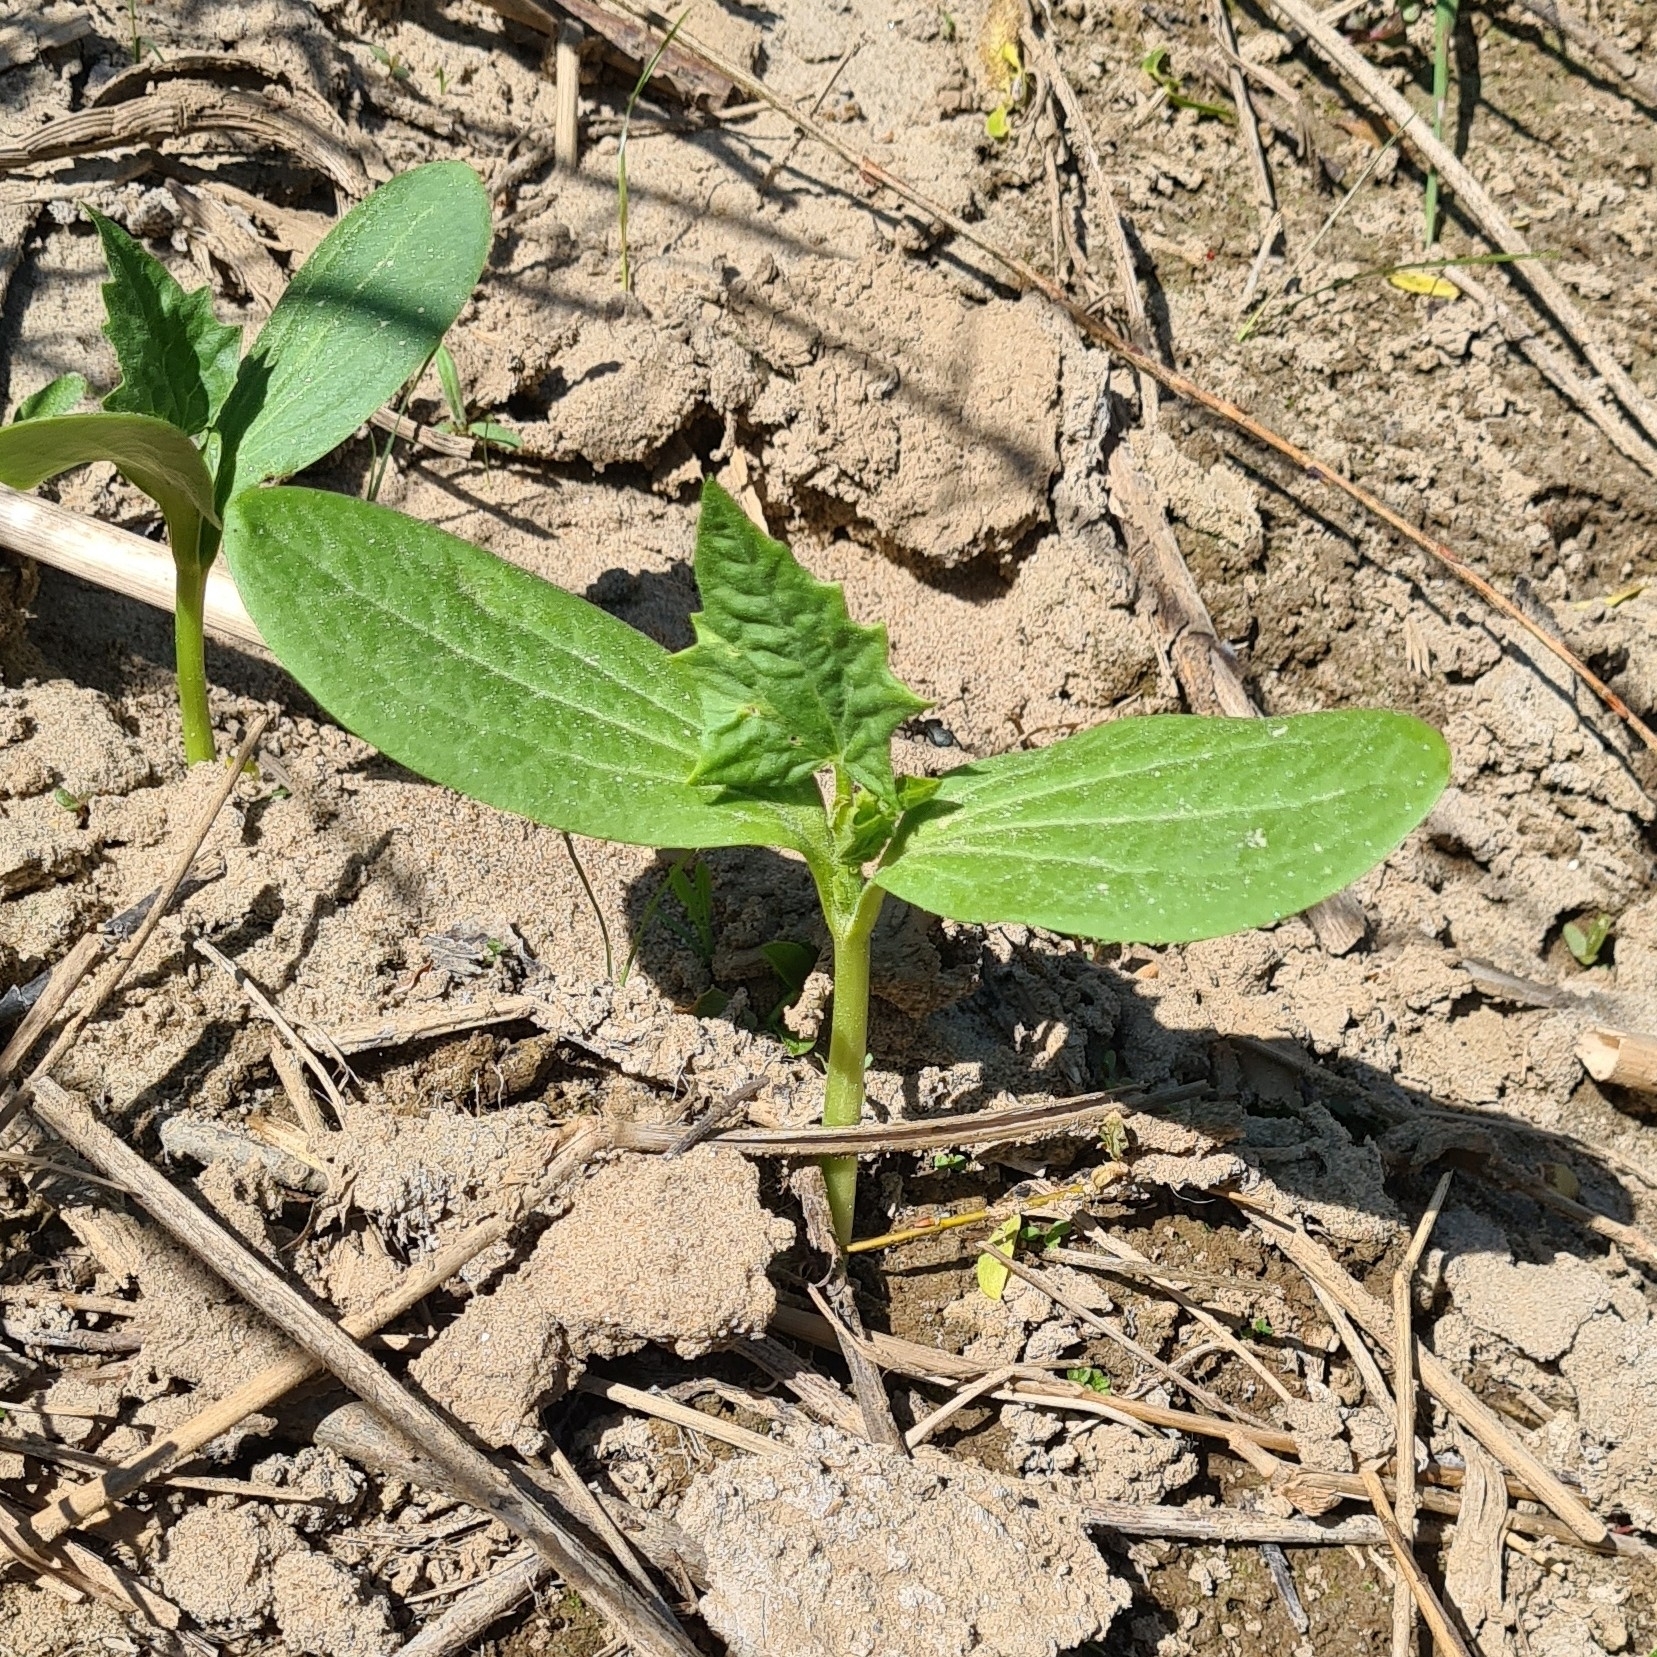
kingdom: Plantae
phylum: Tracheophyta
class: Magnoliopsida
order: Cucurbitales
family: Cucurbitaceae
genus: Echinocystis
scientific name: Echinocystis lobata
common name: Wild cucumber
